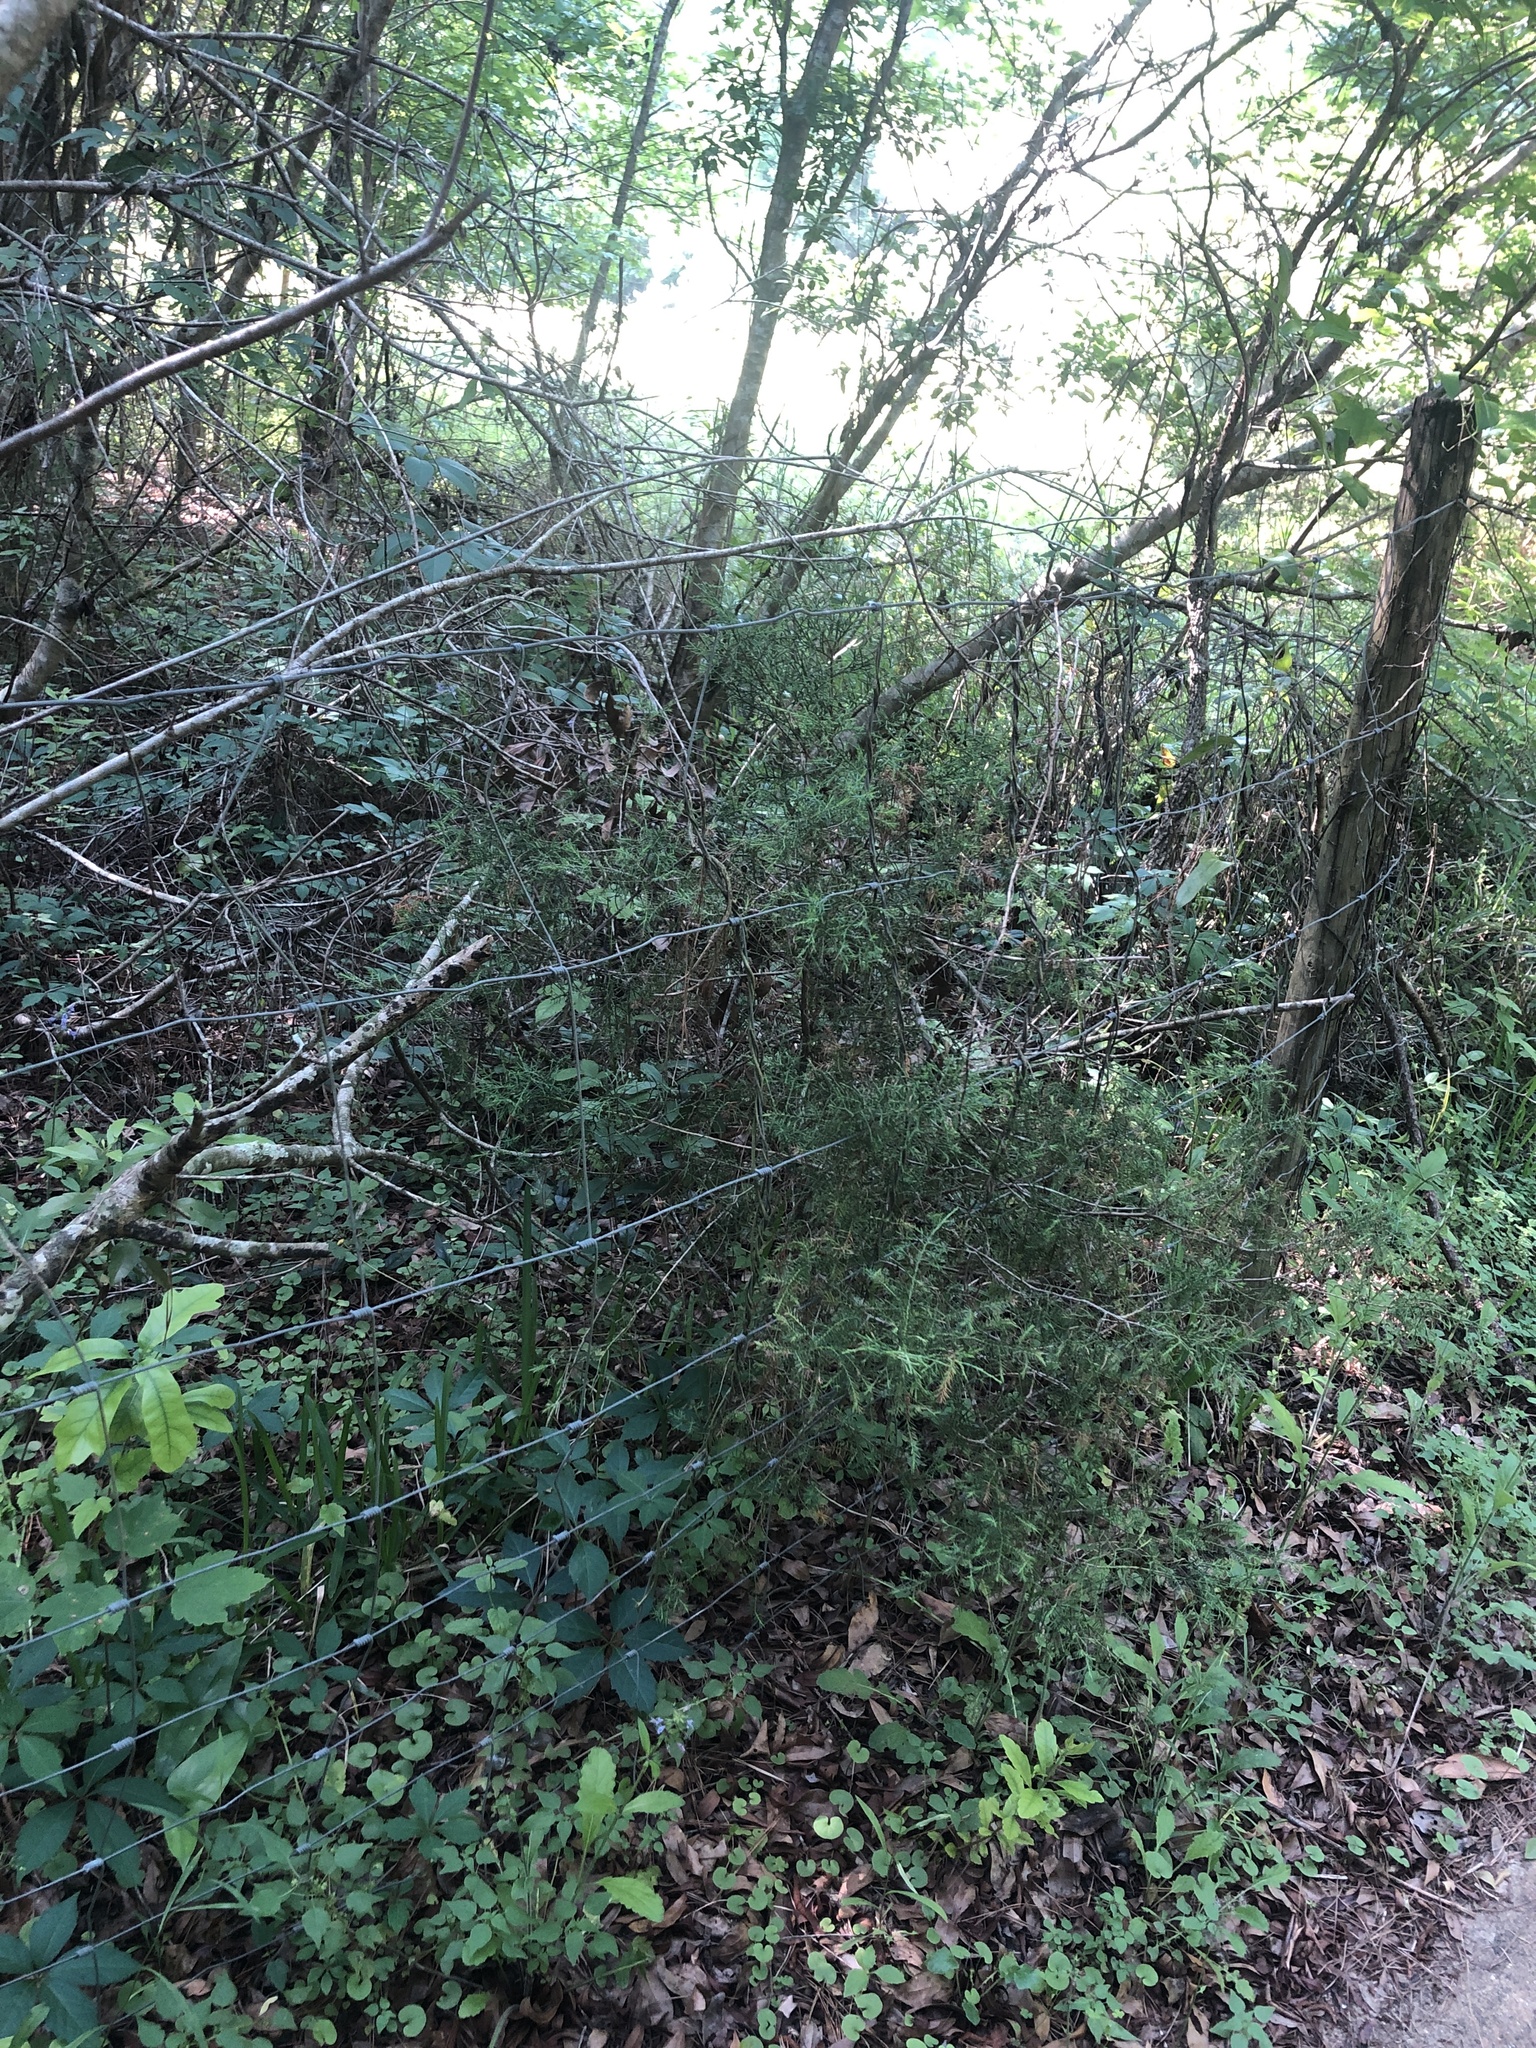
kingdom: Plantae
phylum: Tracheophyta
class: Pinopsida
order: Pinales
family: Cupressaceae
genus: Juniperus
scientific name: Juniperus virginiana
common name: Red juniper
